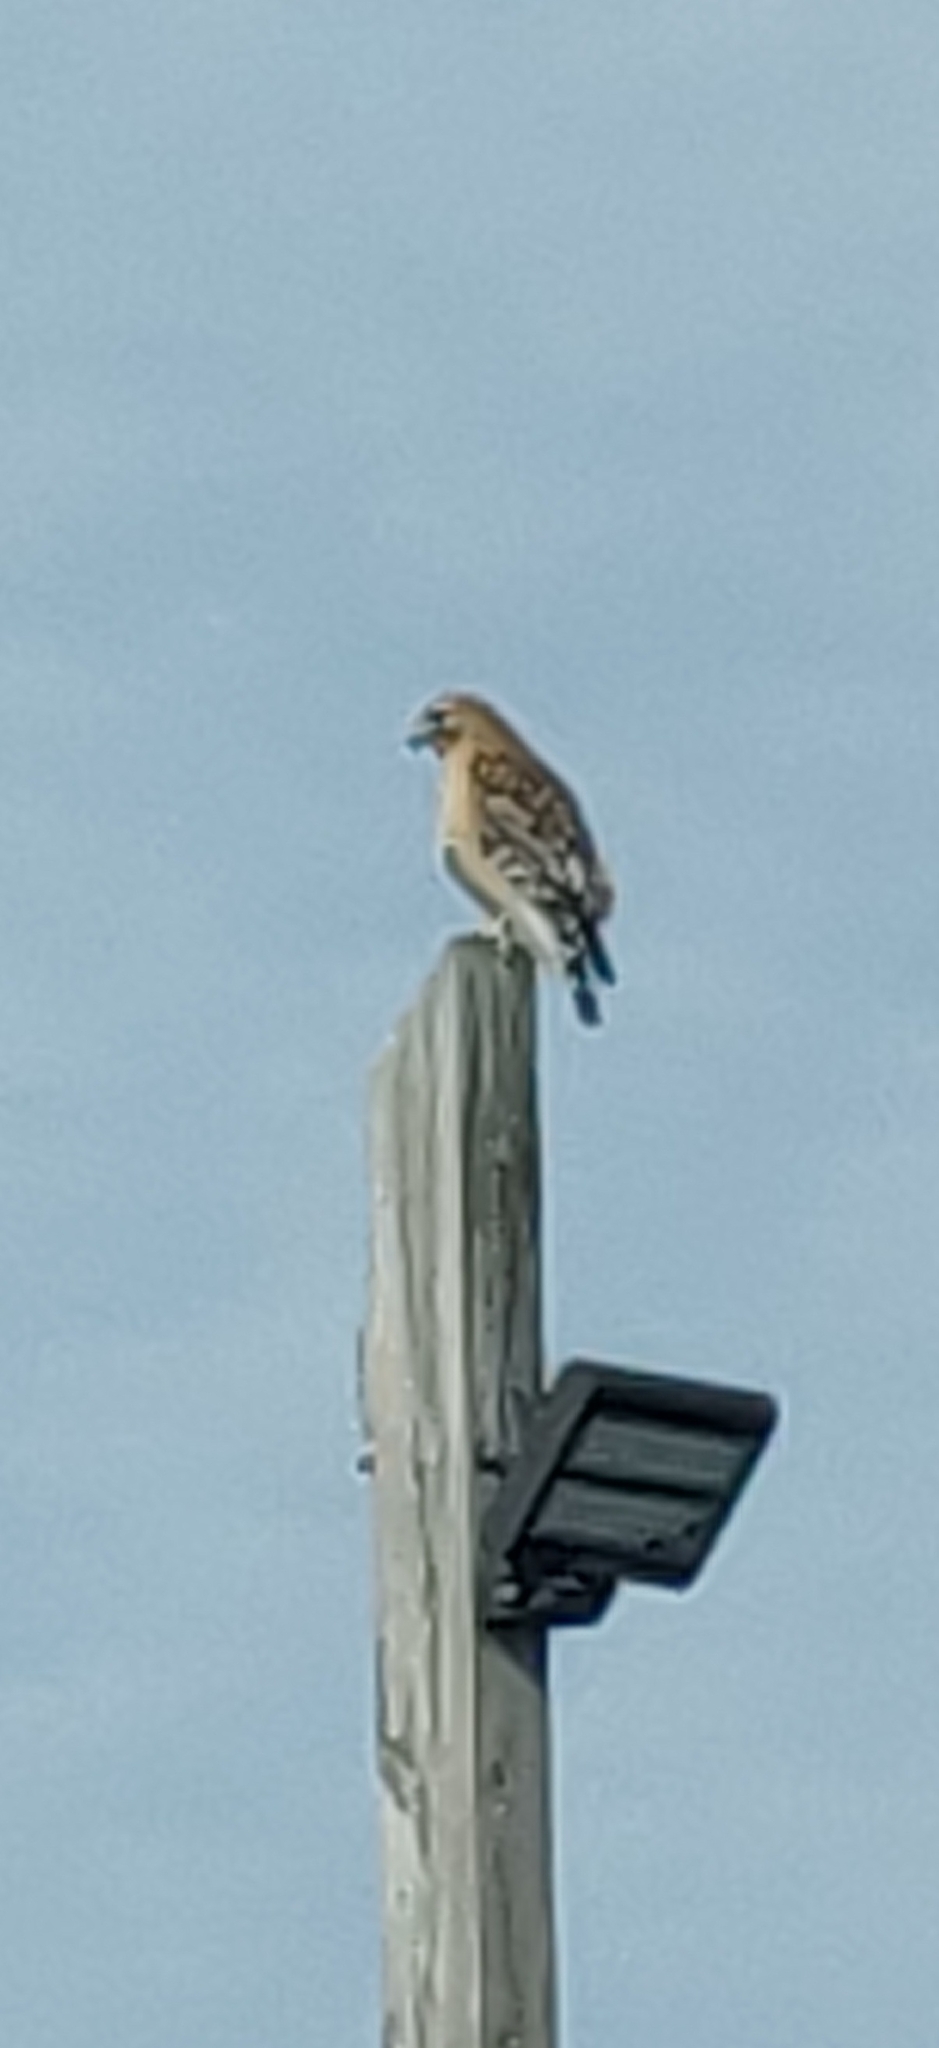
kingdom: Animalia
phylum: Chordata
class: Aves
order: Accipitriformes
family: Accipitridae
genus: Buteo
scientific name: Buteo lineatus
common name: Red-shouldered hawk
